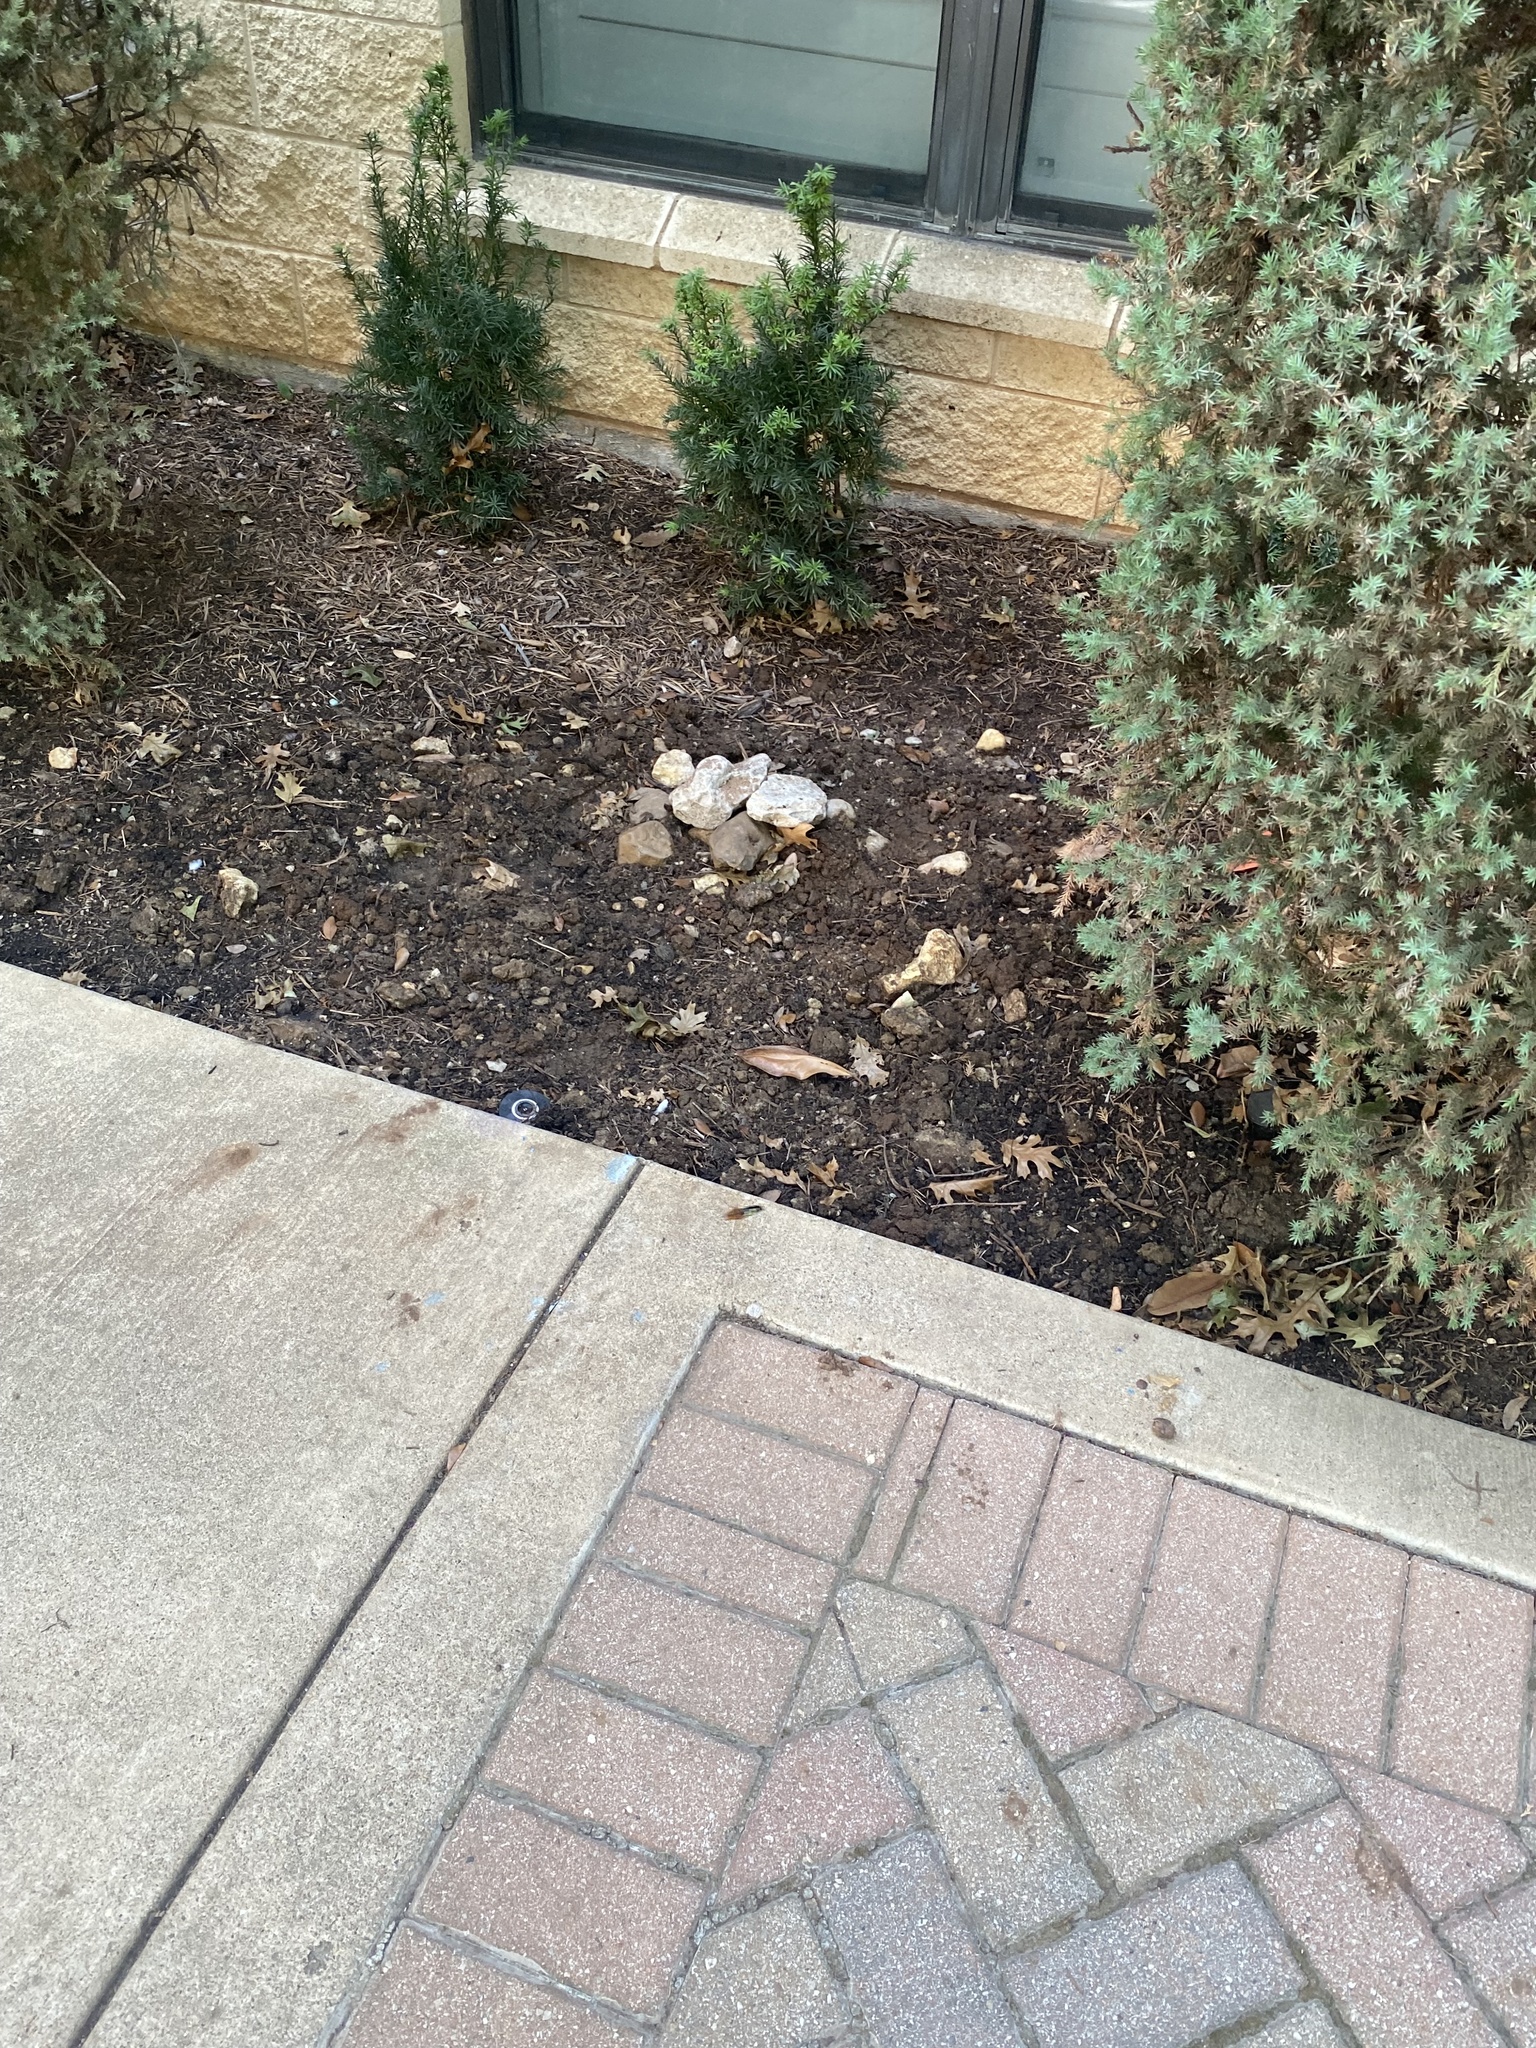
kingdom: Animalia
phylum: Arthropoda
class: Insecta
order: Hymenoptera
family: Crabronidae
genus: Sphecius
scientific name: Sphecius speciosus
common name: Cicada killer
